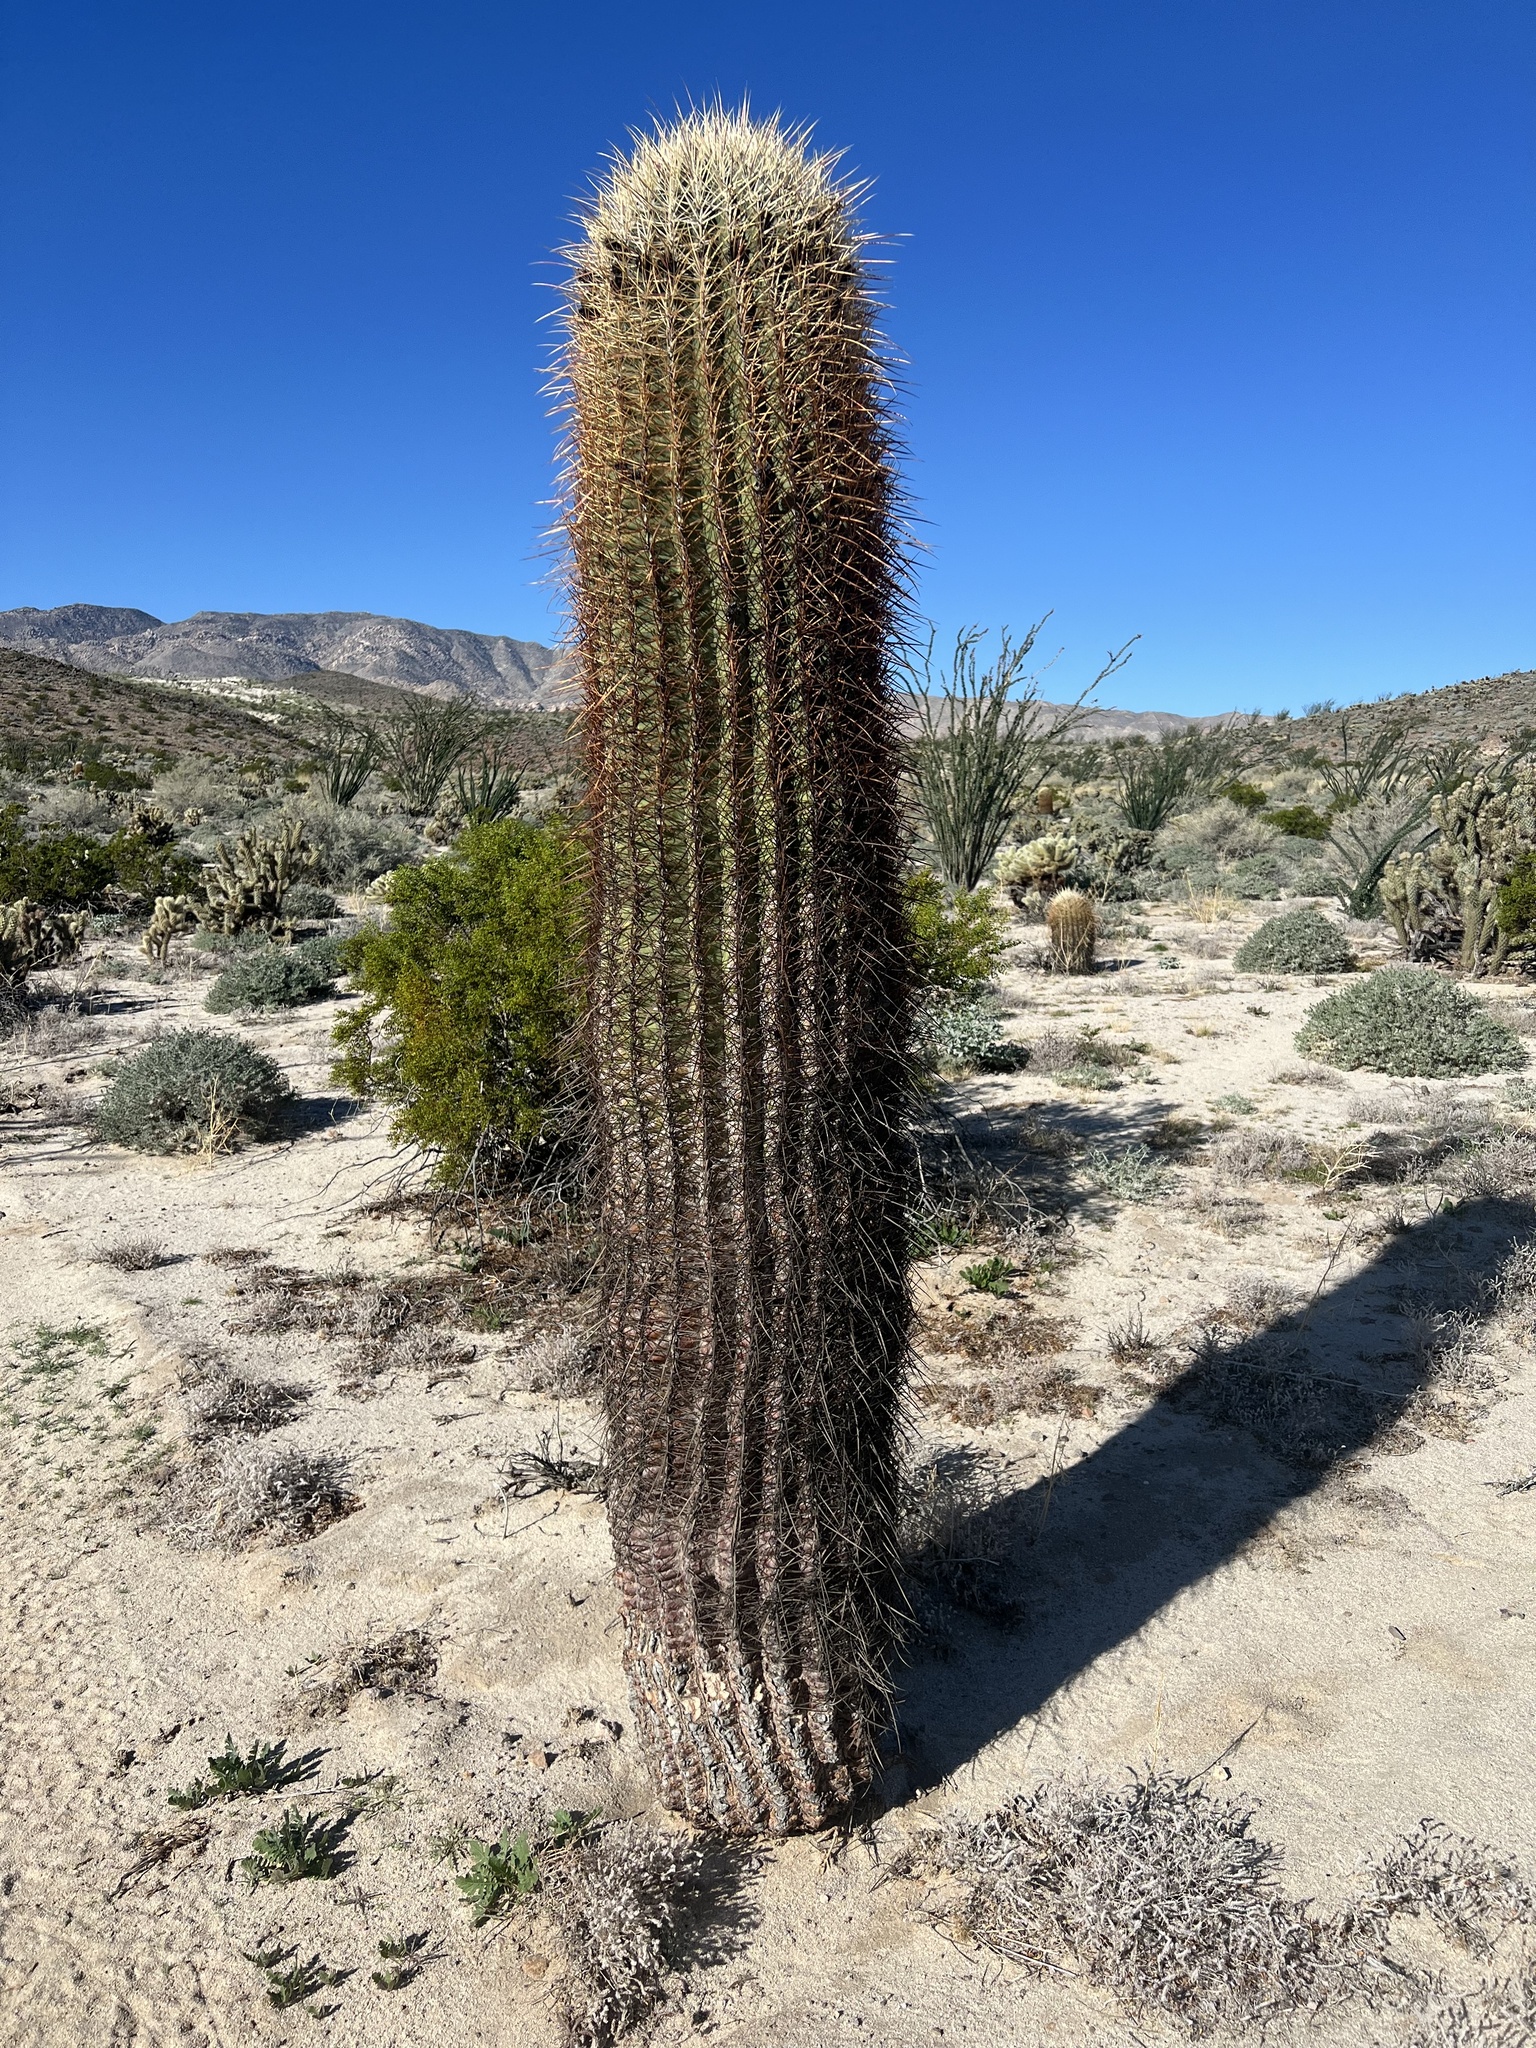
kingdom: Plantae
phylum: Tracheophyta
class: Magnoliopsida
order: Caryophyllales
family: Cactaceae
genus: Ferocactus
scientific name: Ferocactus cylindraceus
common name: California barrel cactus
